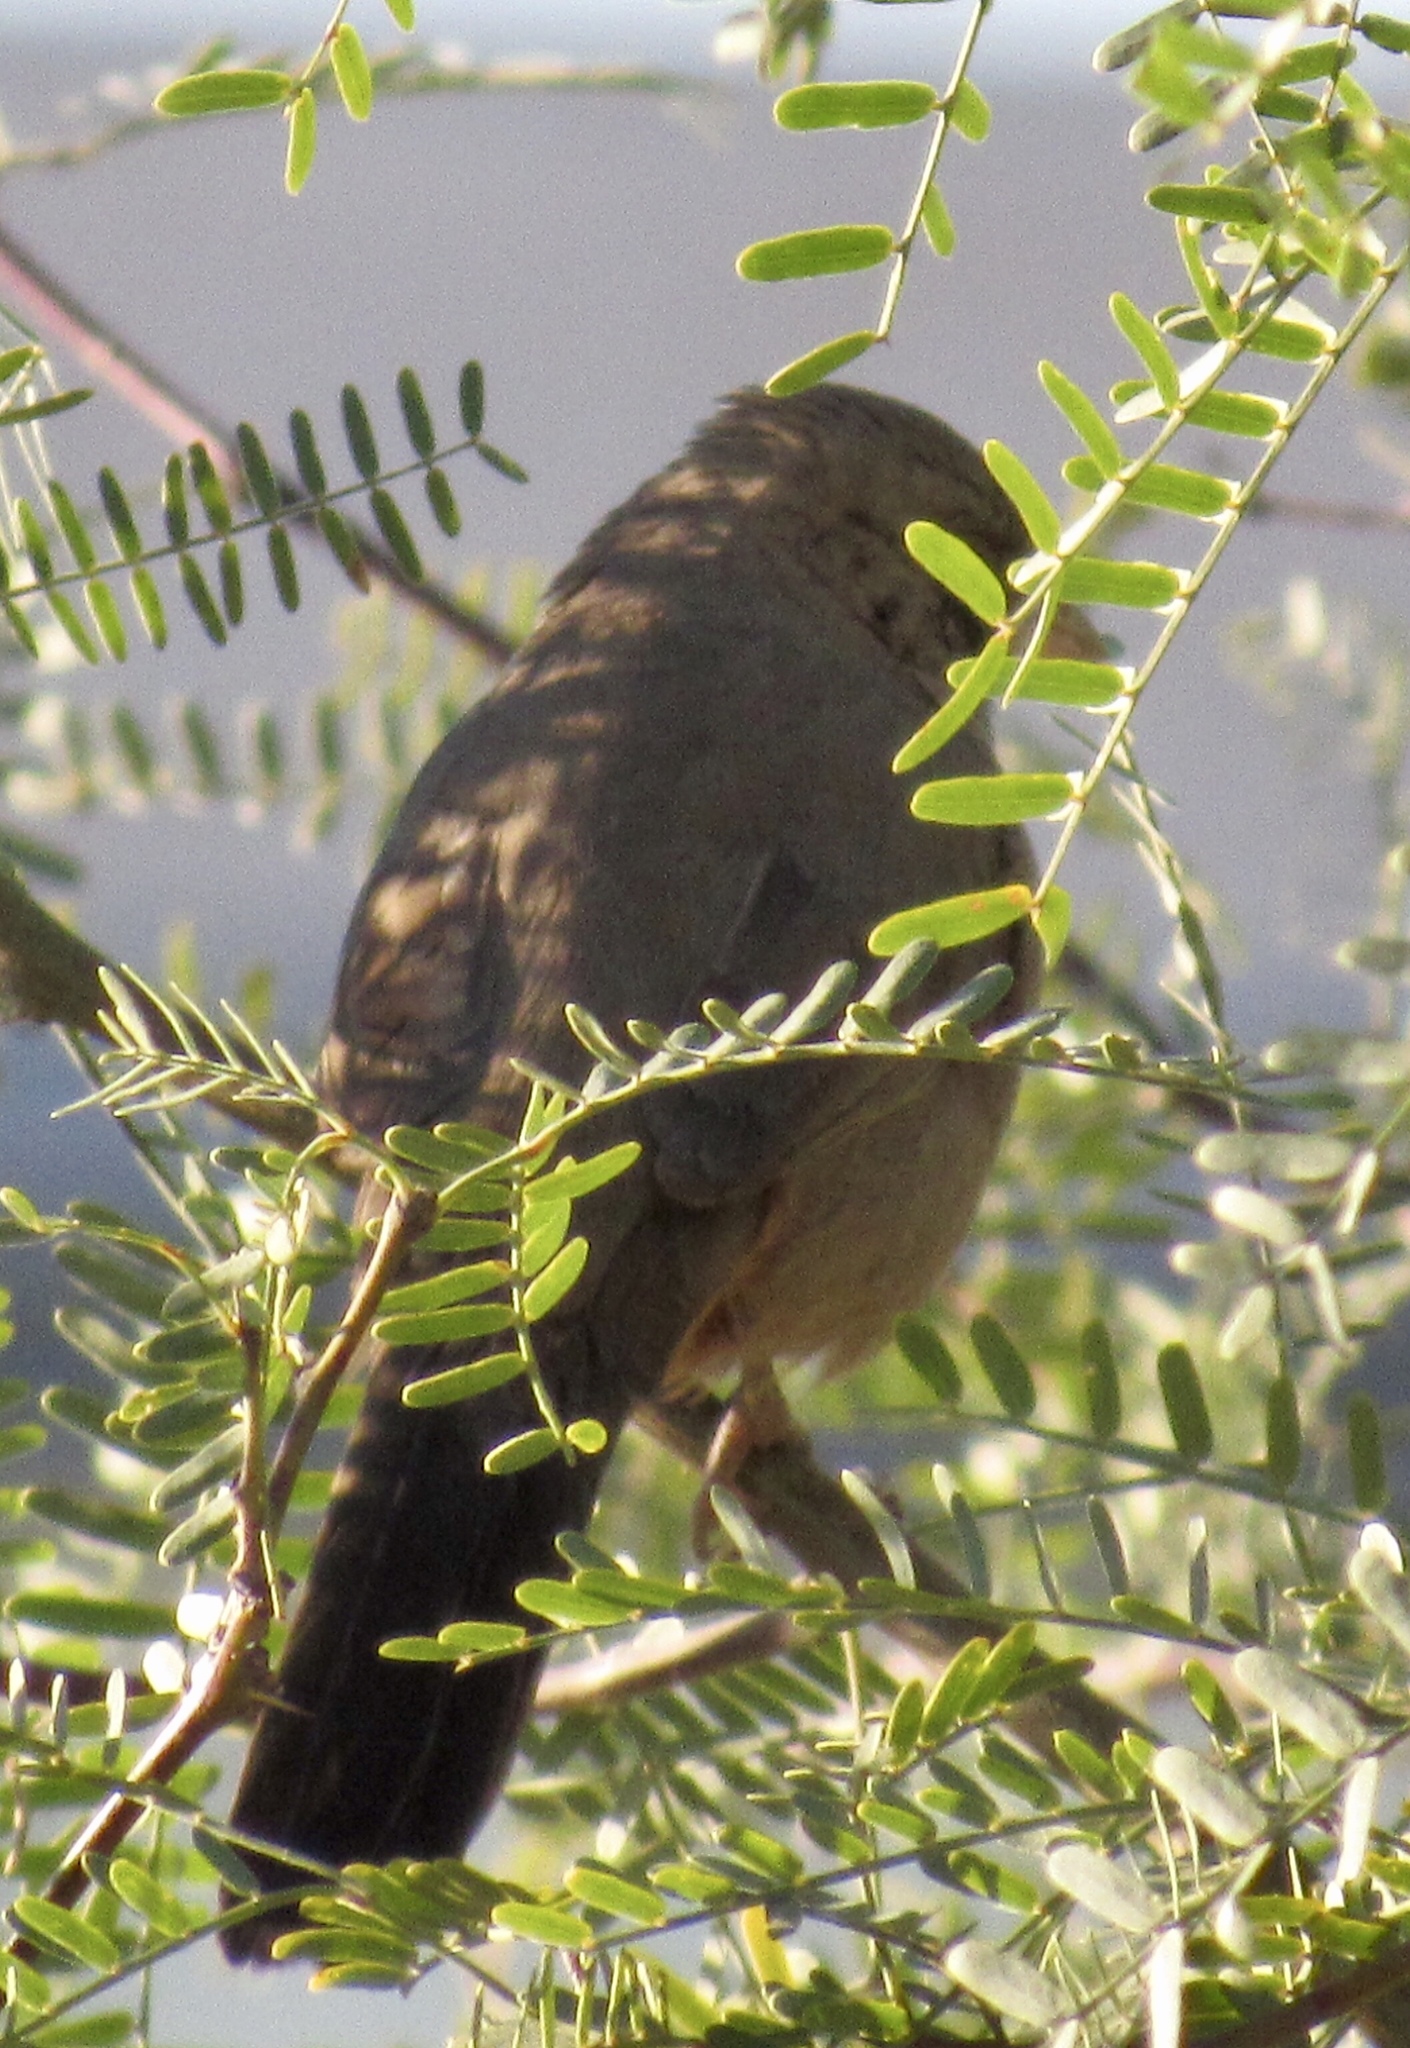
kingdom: Animalia
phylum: Chordata
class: Aves
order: Passeriformes
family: Passerellidae
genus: Melozone
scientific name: Melozone aberti
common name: Abert's towhee
